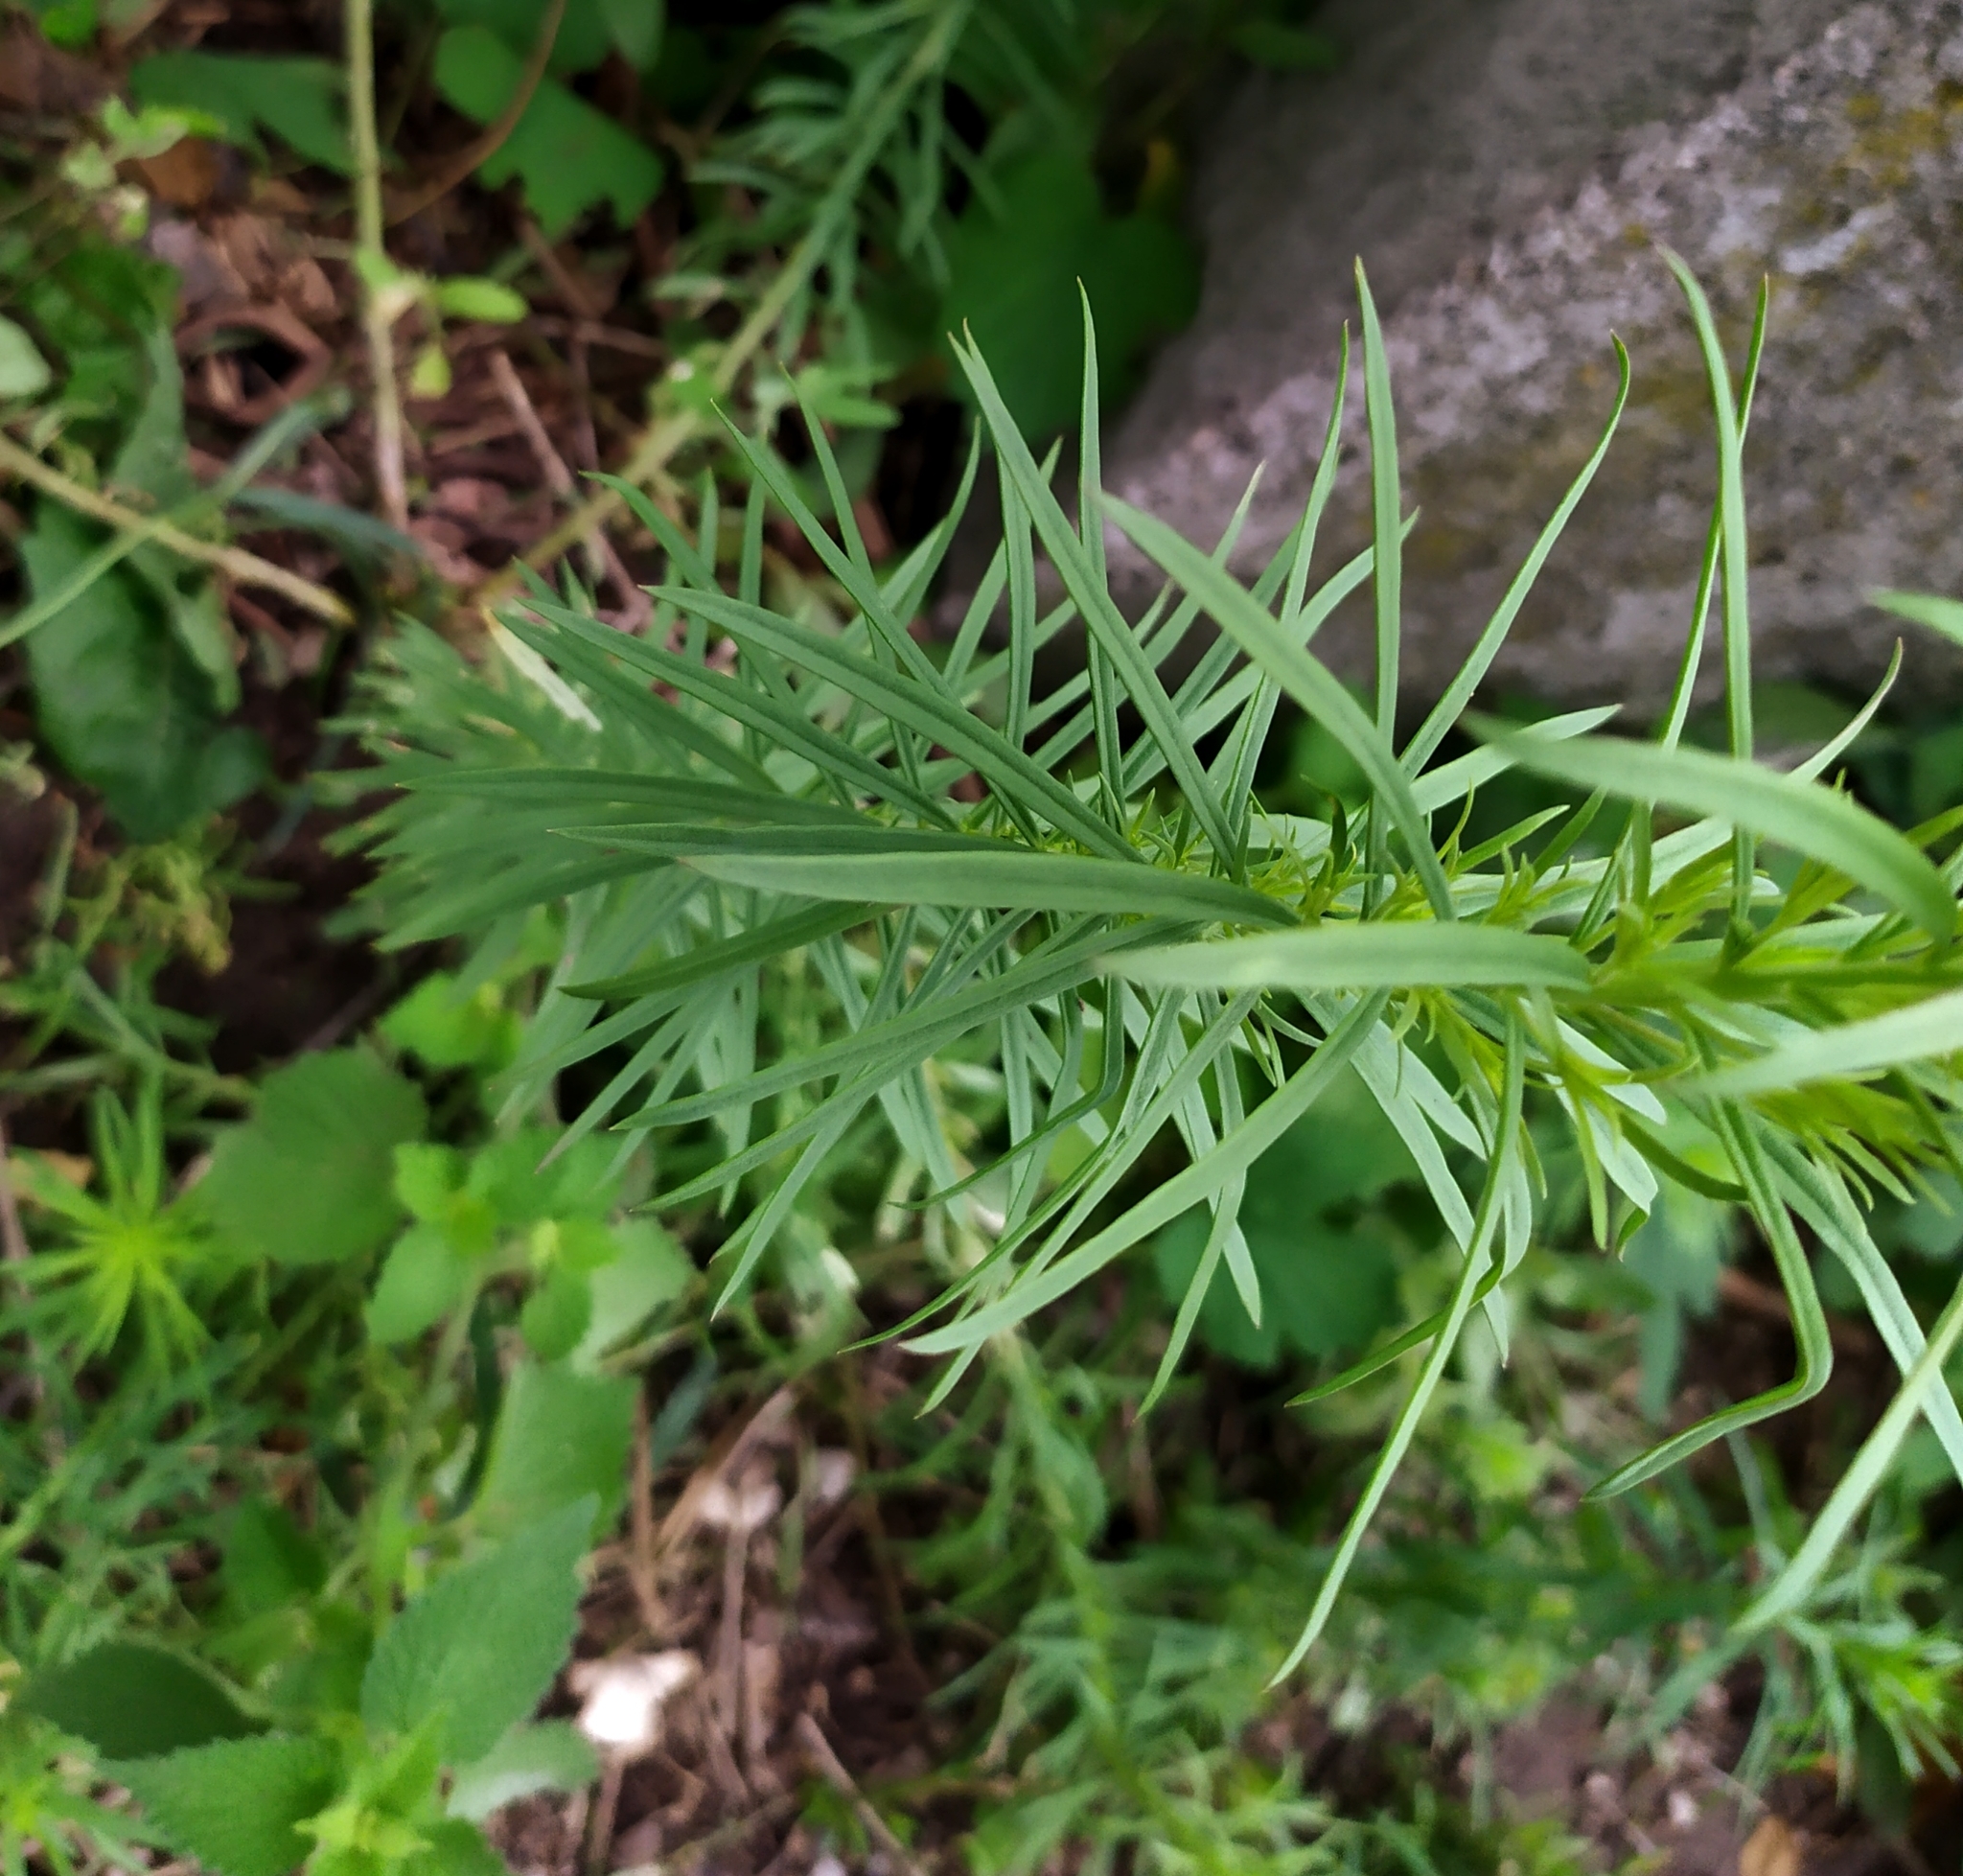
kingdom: Plantae
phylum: Tracheophyta
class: Magnoliopsida
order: Lamiales
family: Plantaginaceae
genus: Linaria
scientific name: Linaria vulgaris
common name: Butter and eggs
